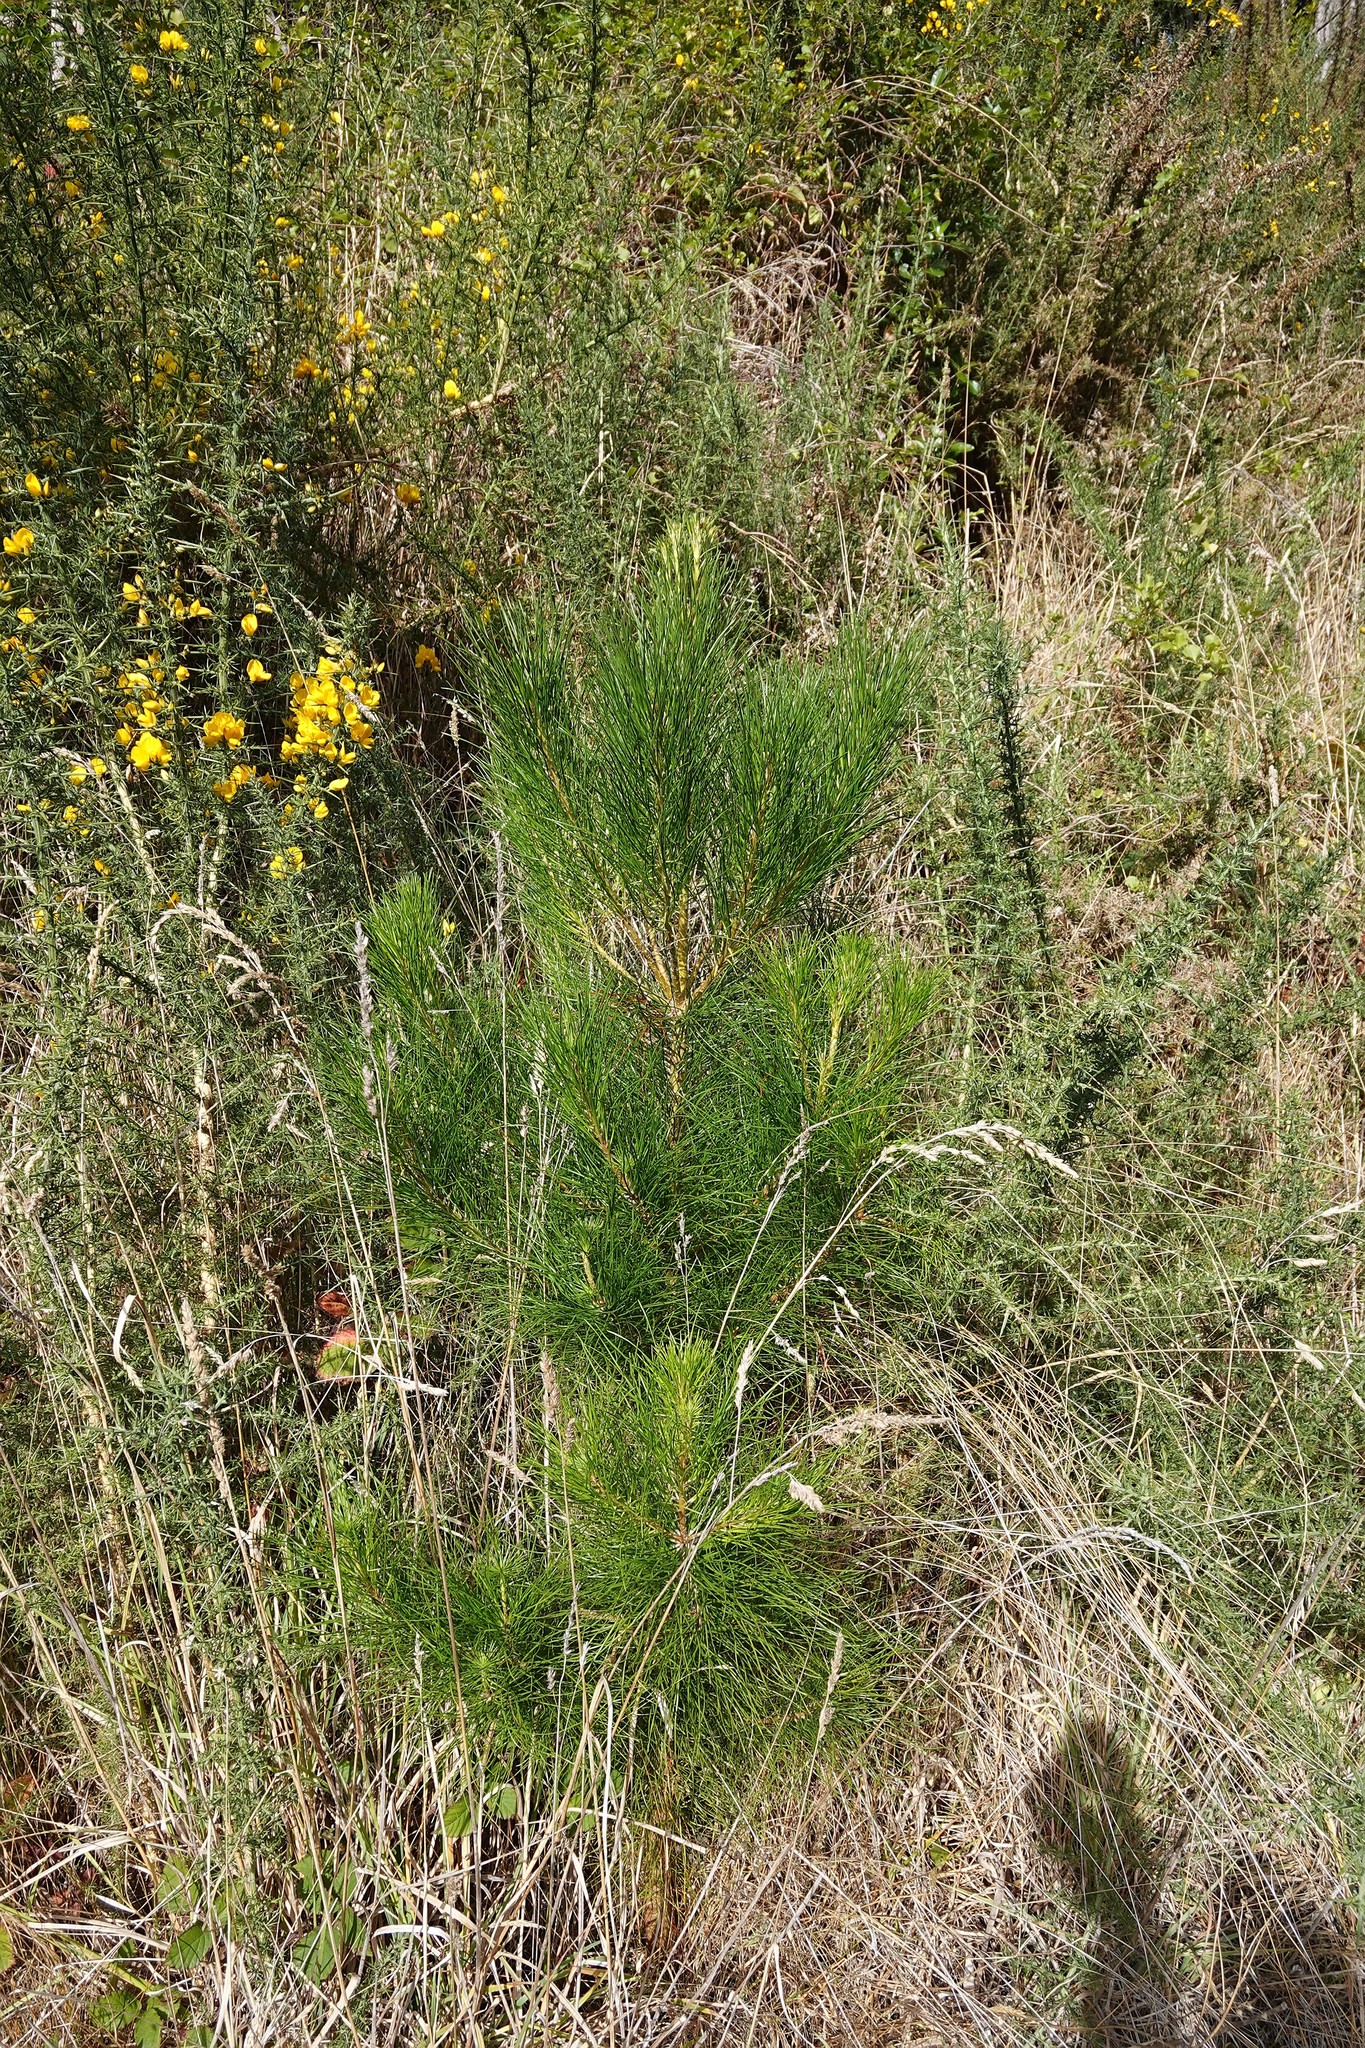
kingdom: Plantae
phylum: Tracheophyta
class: Pinopsida
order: Pinales
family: Pinaceae
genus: Pinus
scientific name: Pinus radiata
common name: Monterey pine
